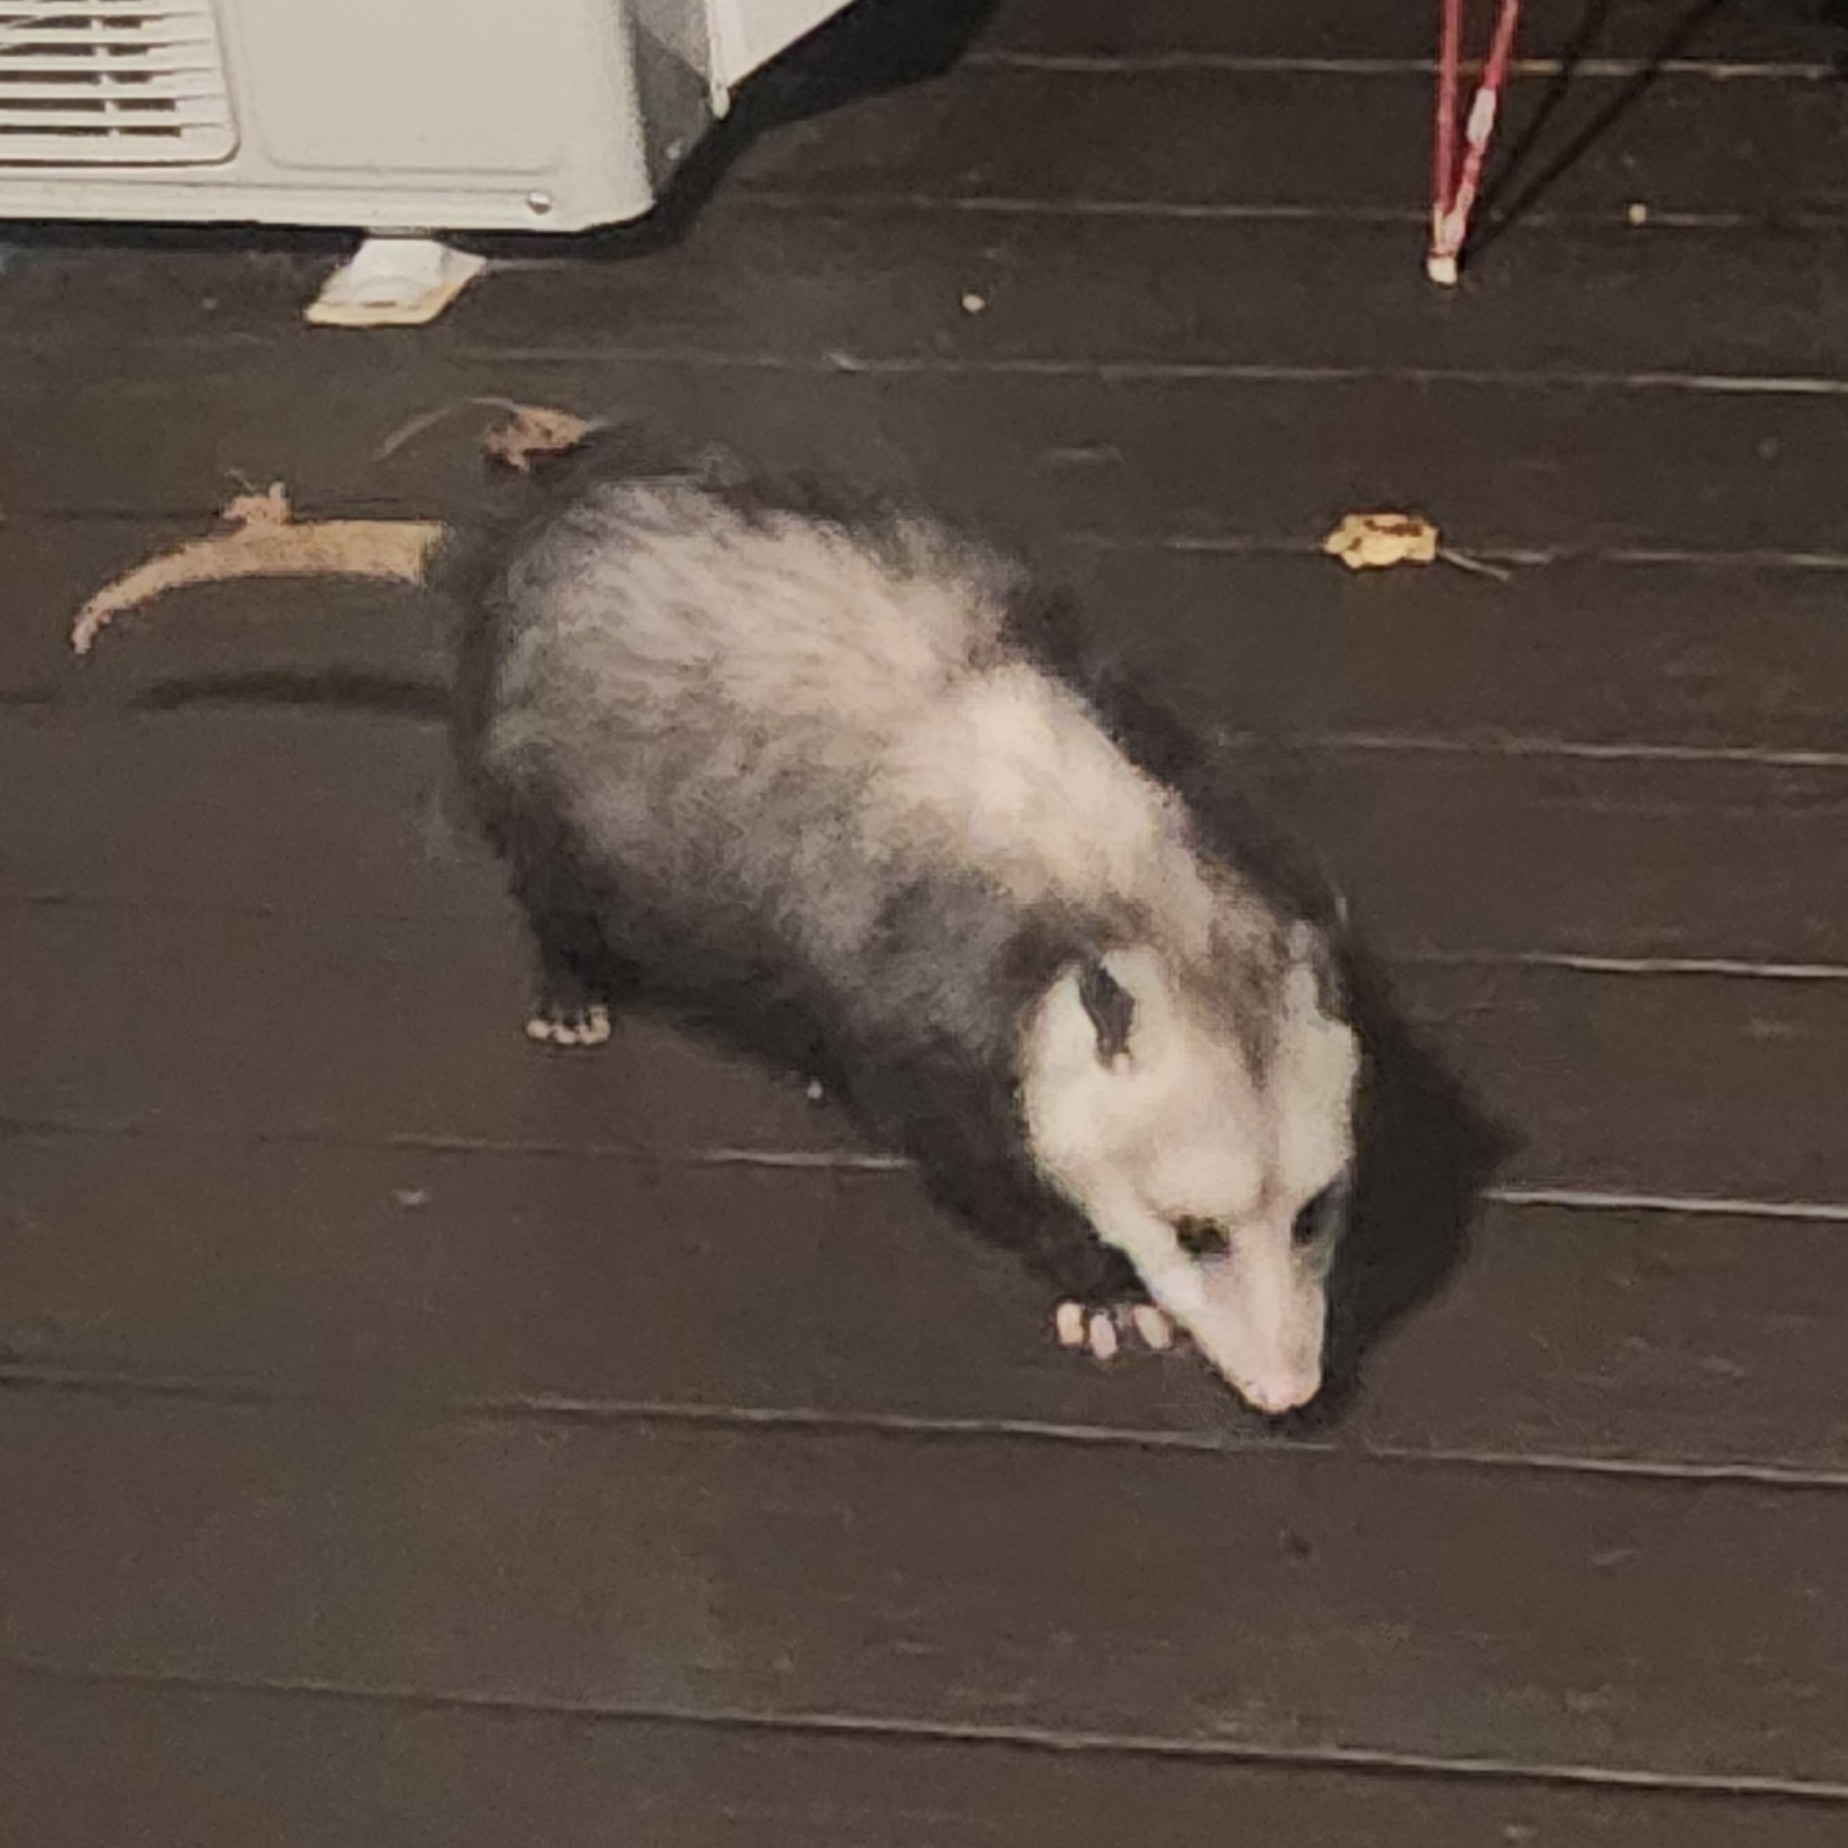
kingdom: Animalia
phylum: Chordata
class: Mammalia
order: Didelphimorphia
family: Didelphidae
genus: Didelphis
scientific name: Didelphis virginiana
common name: Virginia opossum
